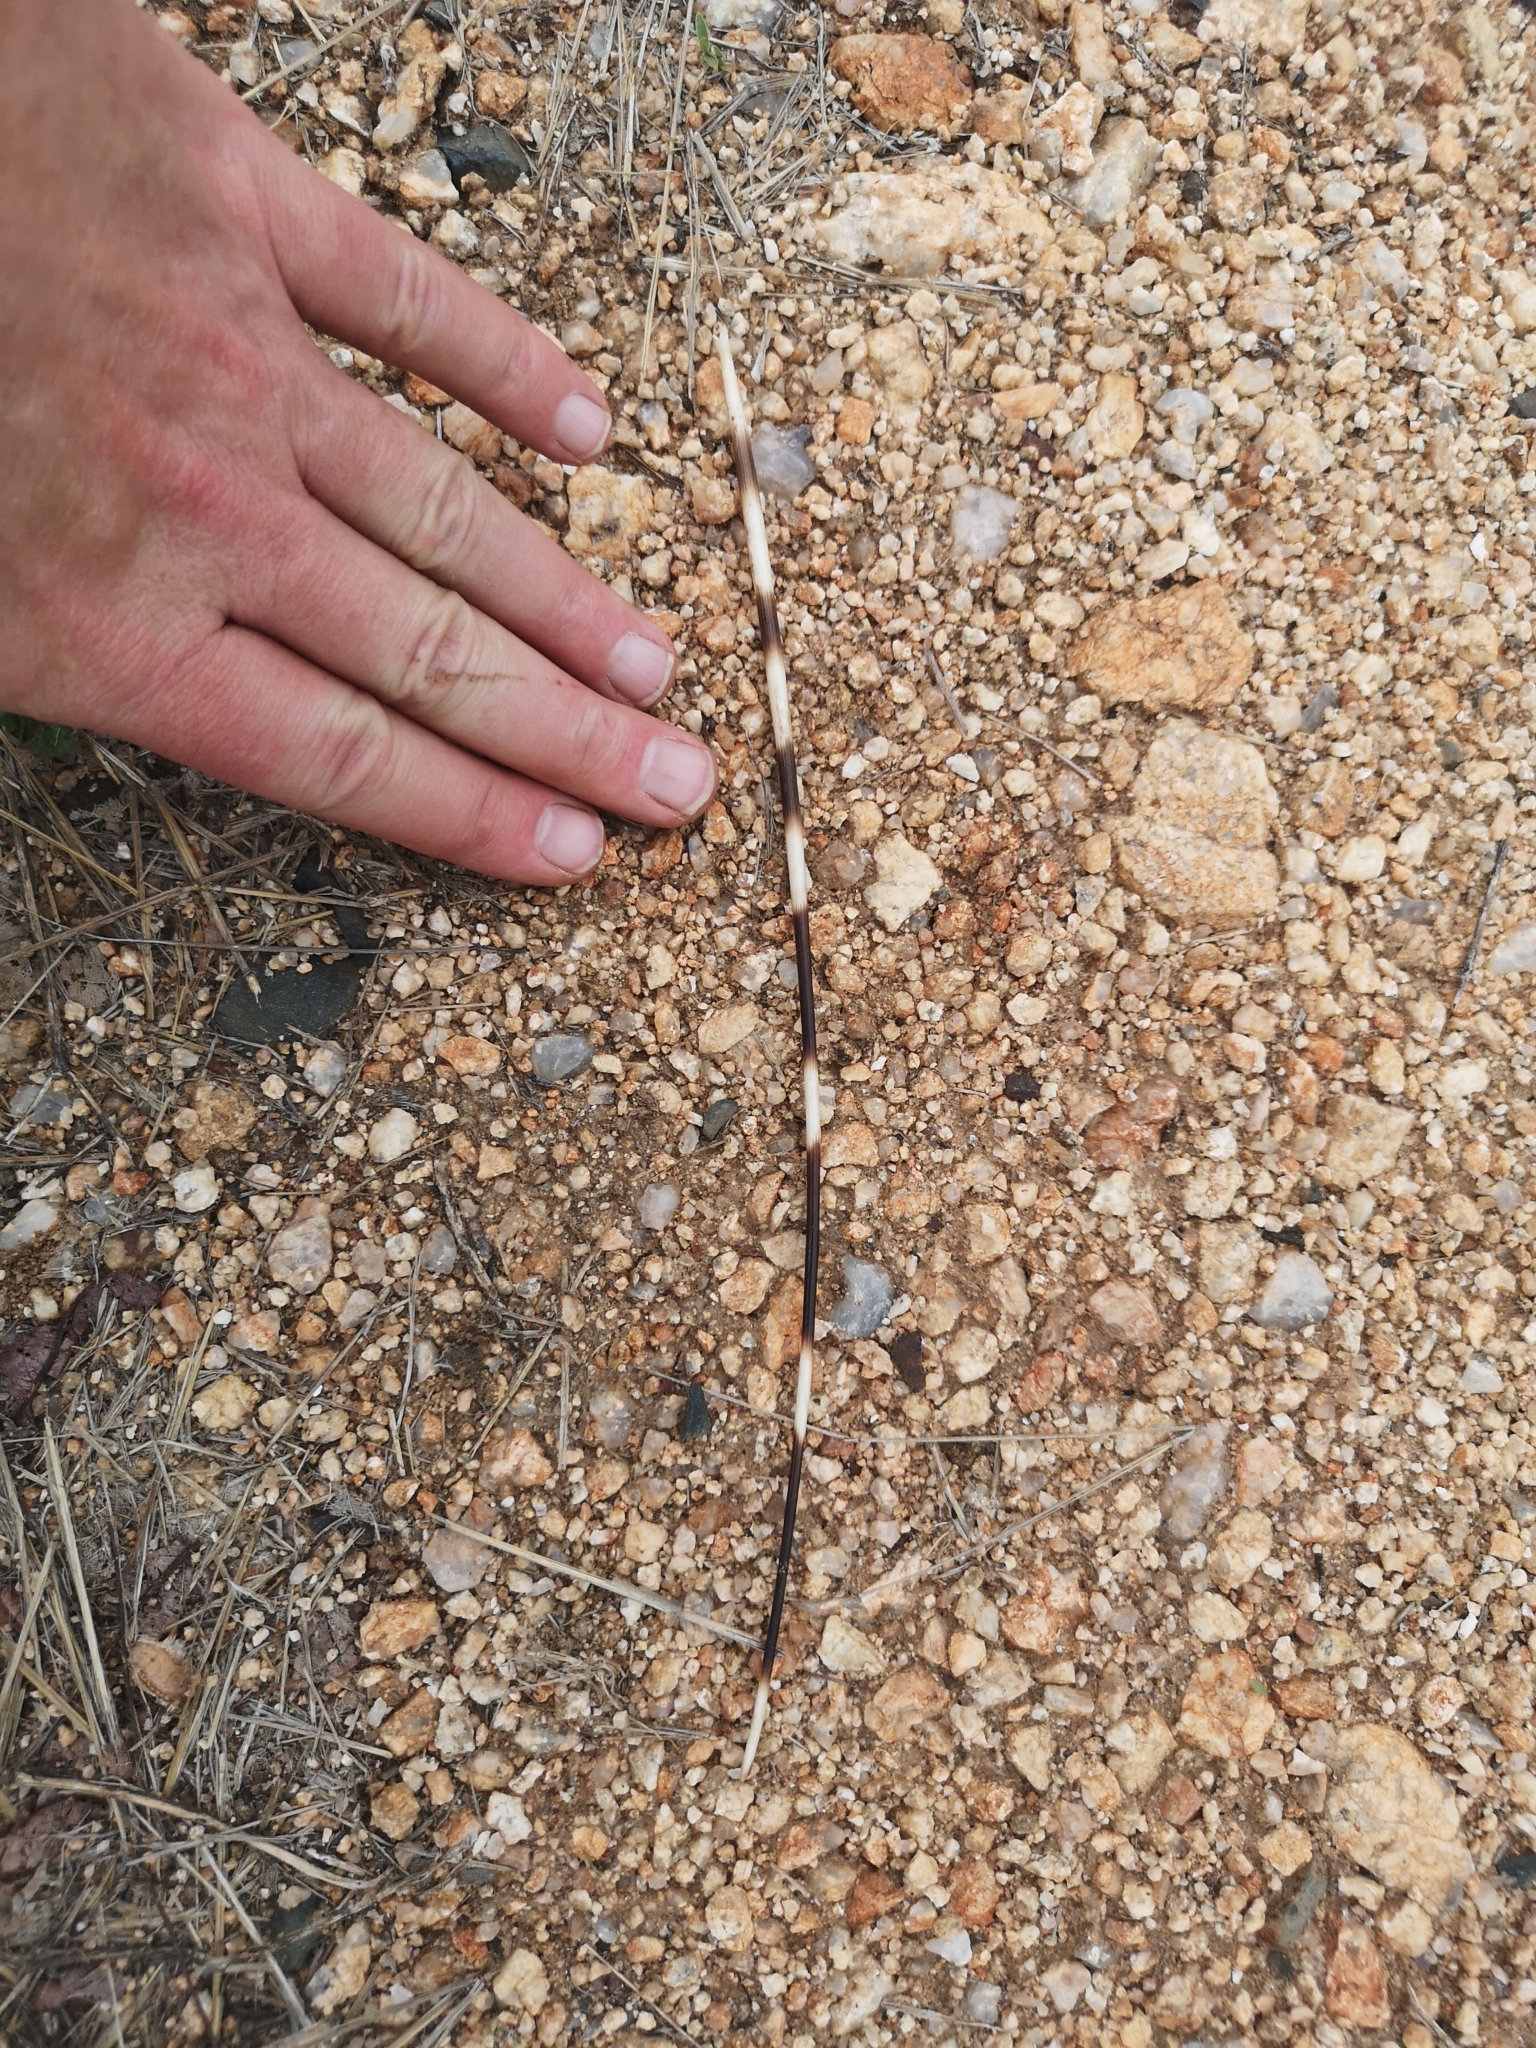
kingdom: Animalia
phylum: Chordata
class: Mammalia
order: Rodentia
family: Hystricidae
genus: Hystrix
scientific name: Hystrix africaeaustralis
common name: Cape porcupine
